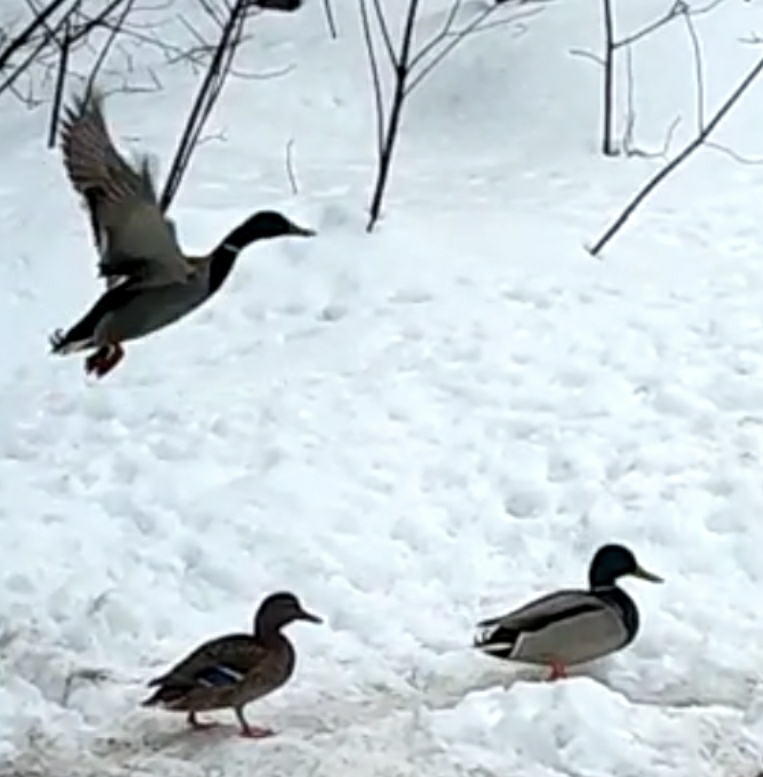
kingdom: Animalia
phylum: Chordata
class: Aves
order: Anseriformes
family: Anatidae
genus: Anas
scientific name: Anas platyrhynchos
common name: Mallard
